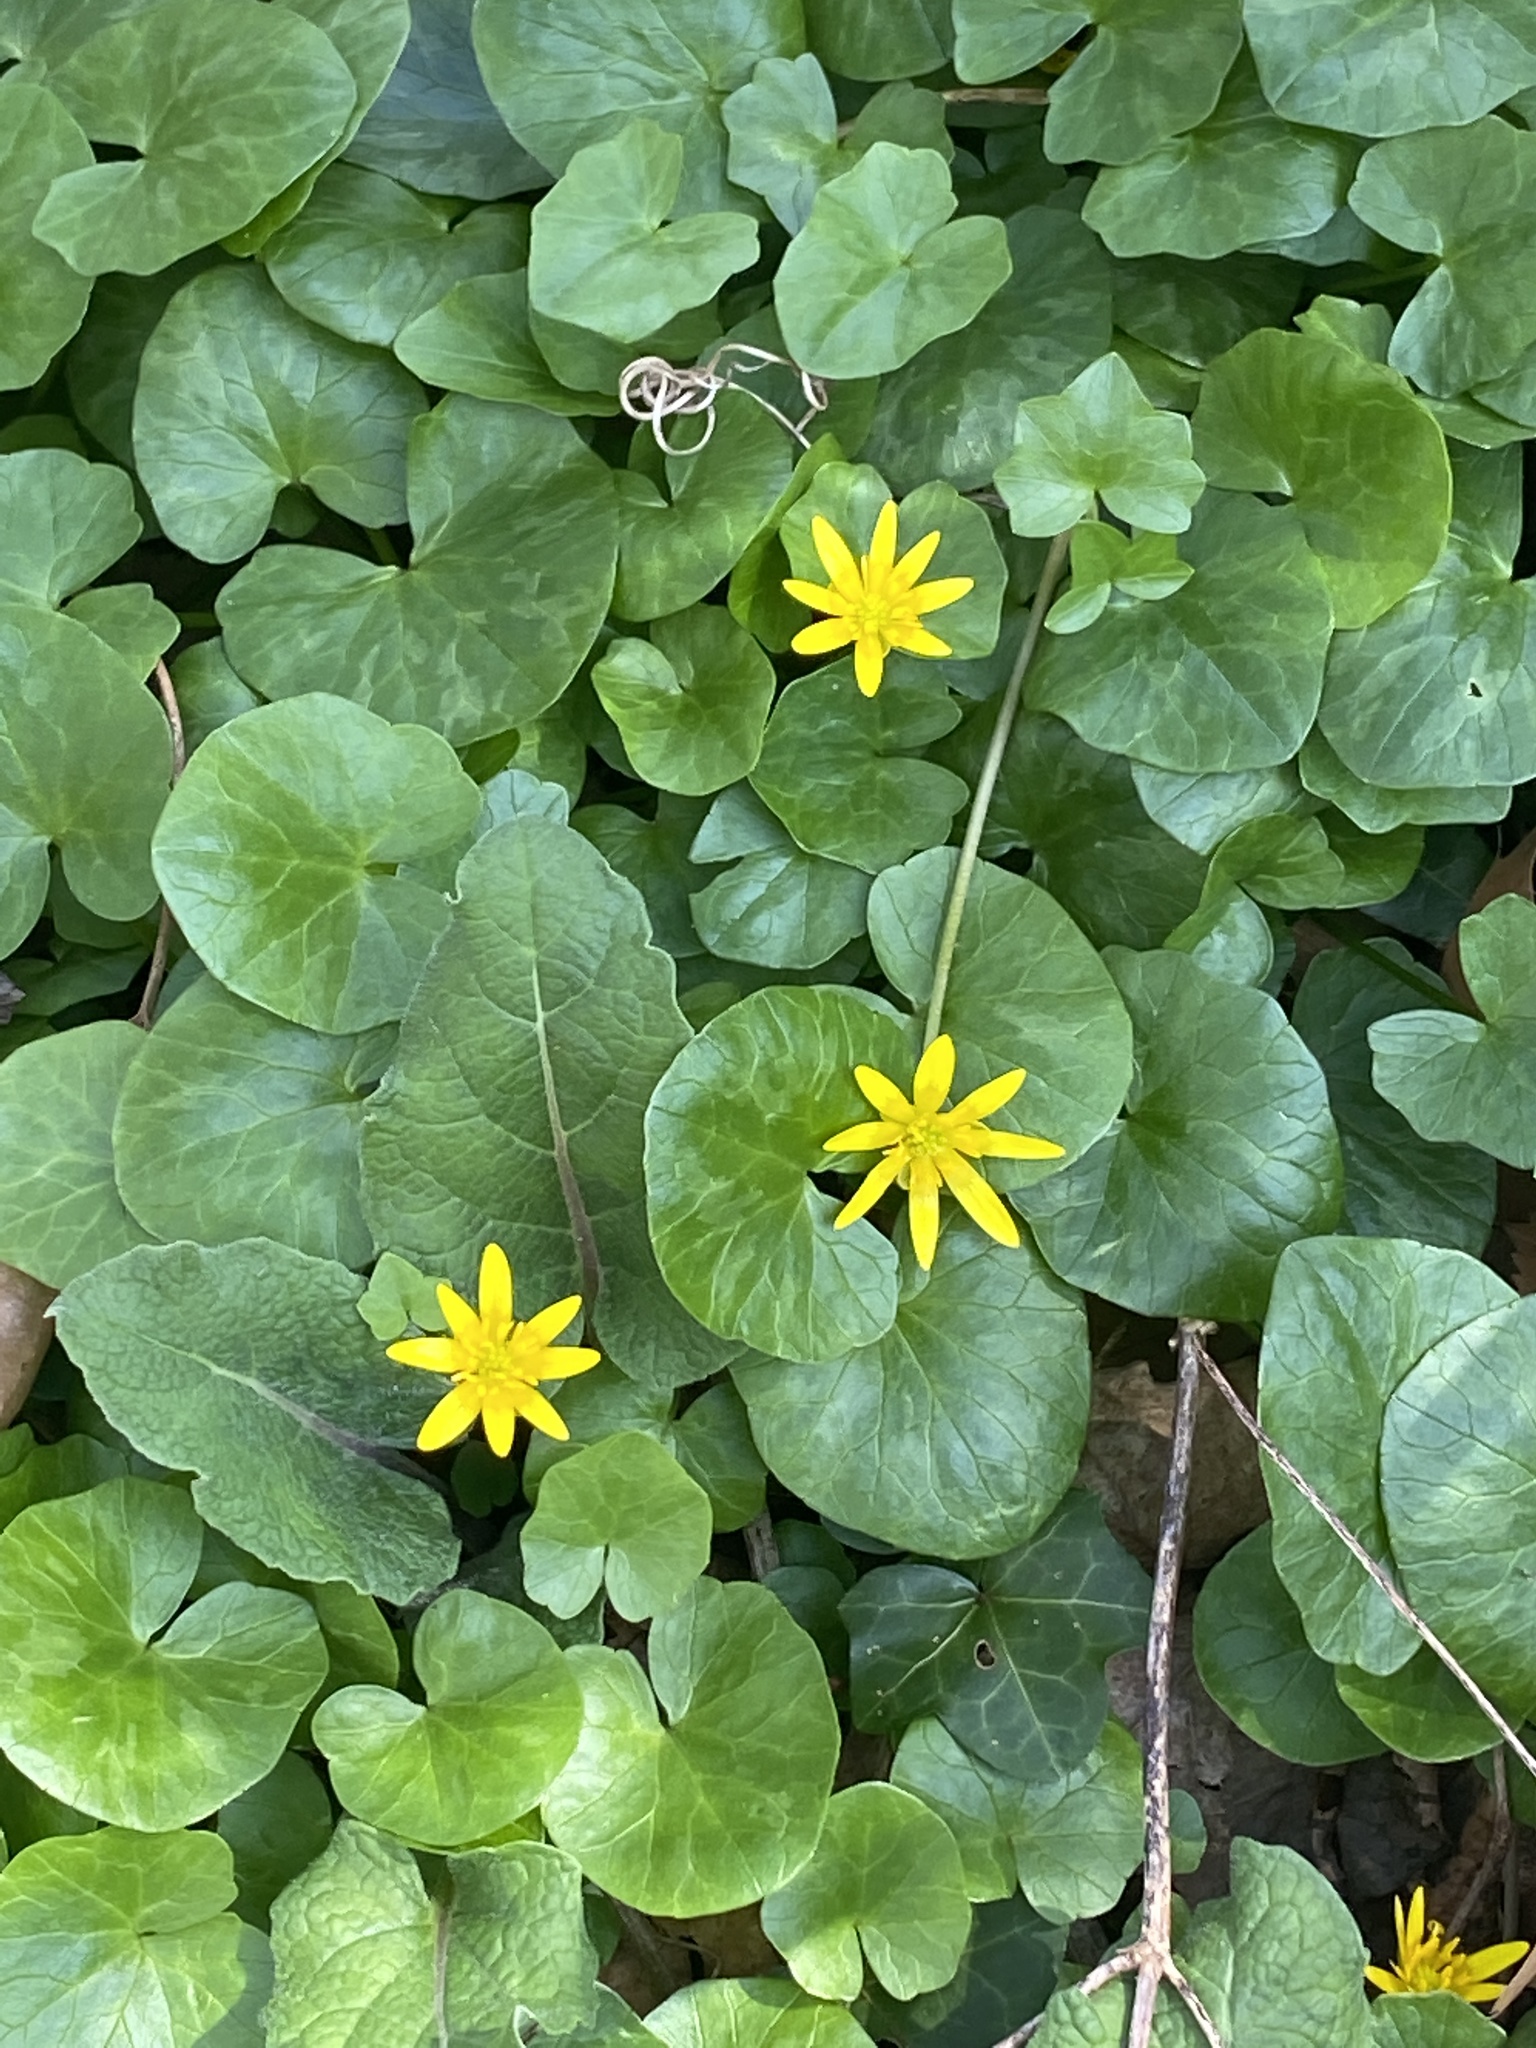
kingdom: Plantae
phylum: Tracheophyta
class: Magnoliopsida
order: Ranunculales
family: Ranunculaceae
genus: Ficaria
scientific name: Ficaria verna
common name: Lesser celandine
